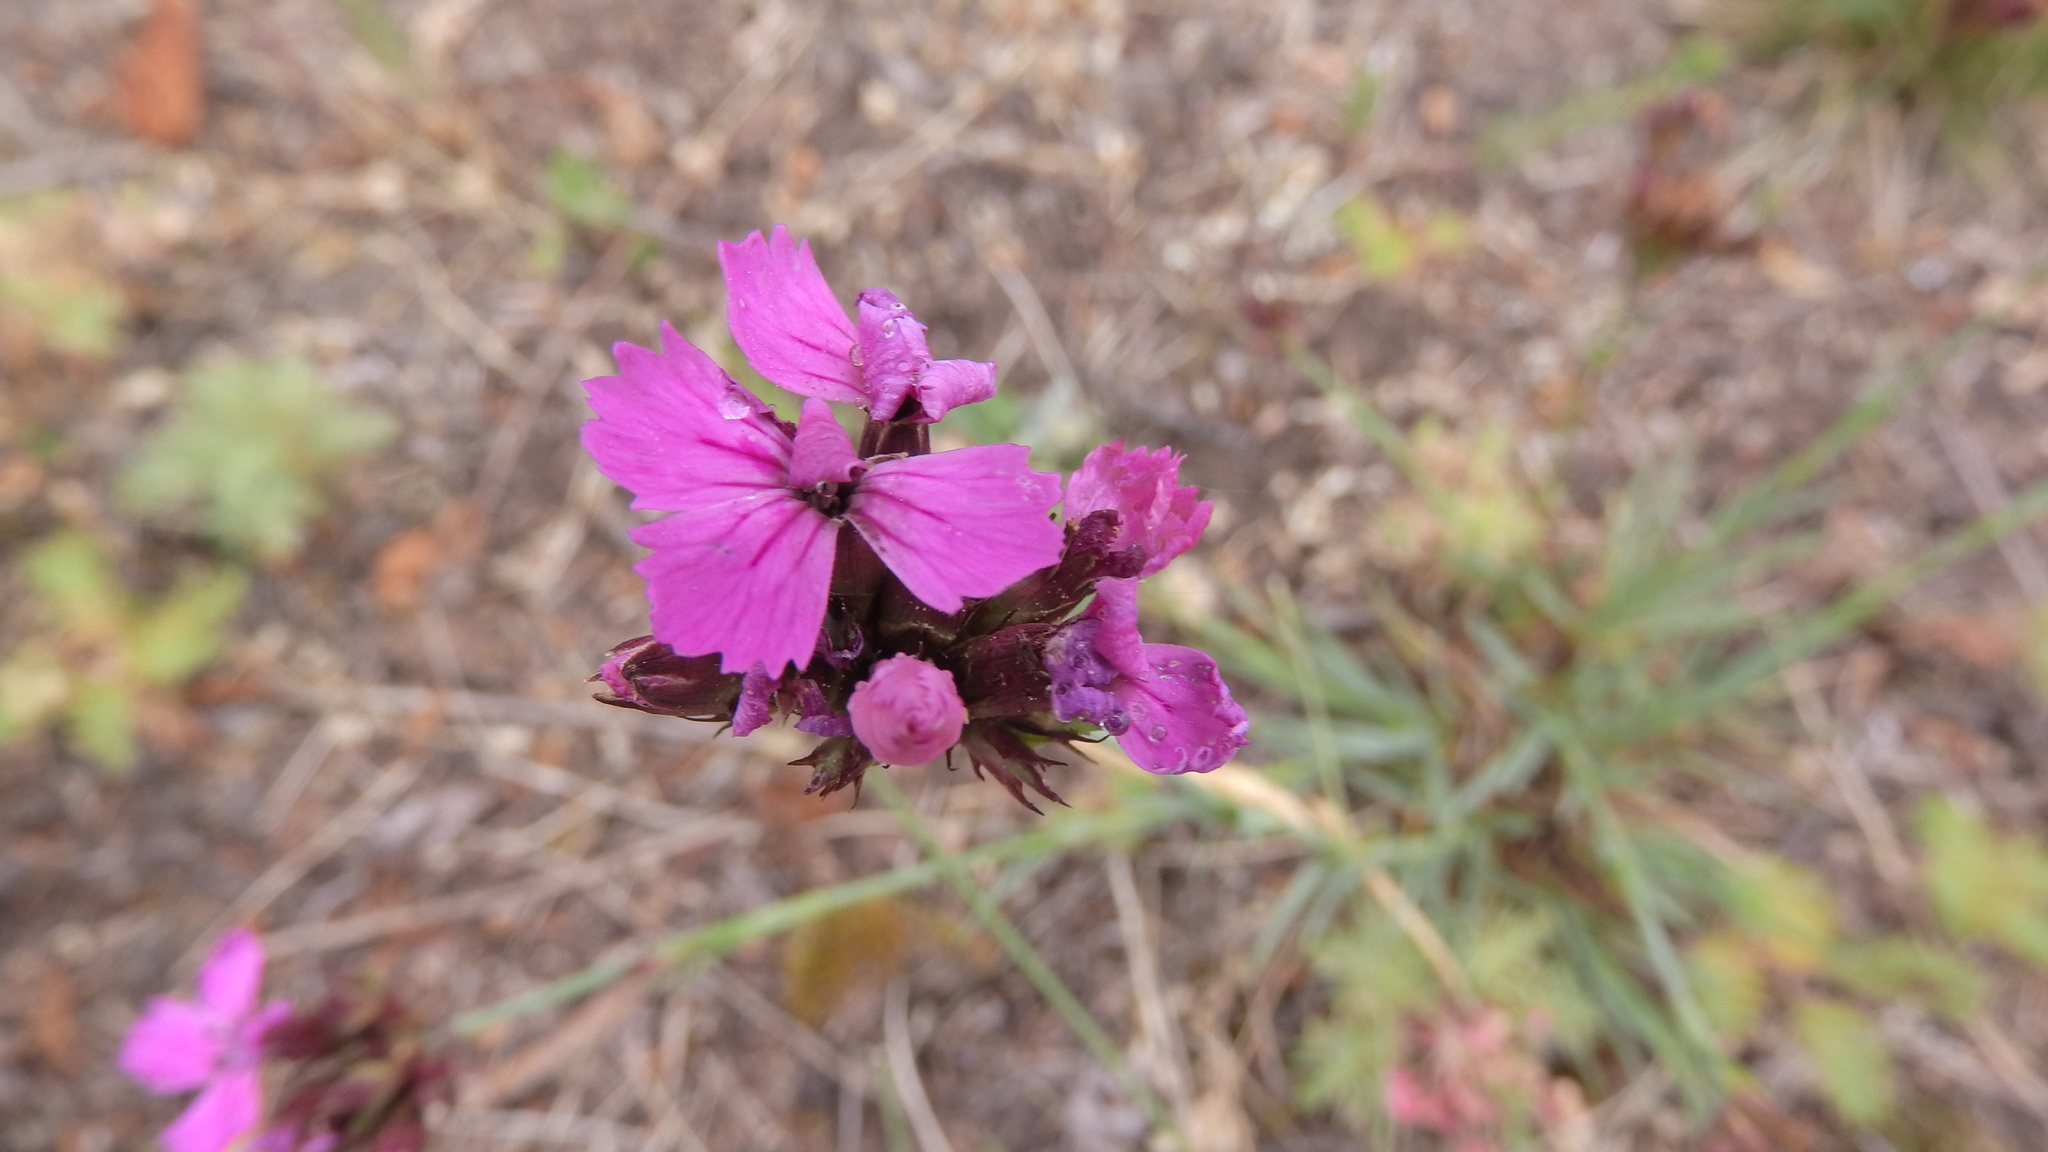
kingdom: Plantae
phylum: Tracheophyta
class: Magnoliopsida
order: Caryophyllales
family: Caryophyllaceae
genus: Dianthus
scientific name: Dianthus carthusianorum
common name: Carthusian pink
